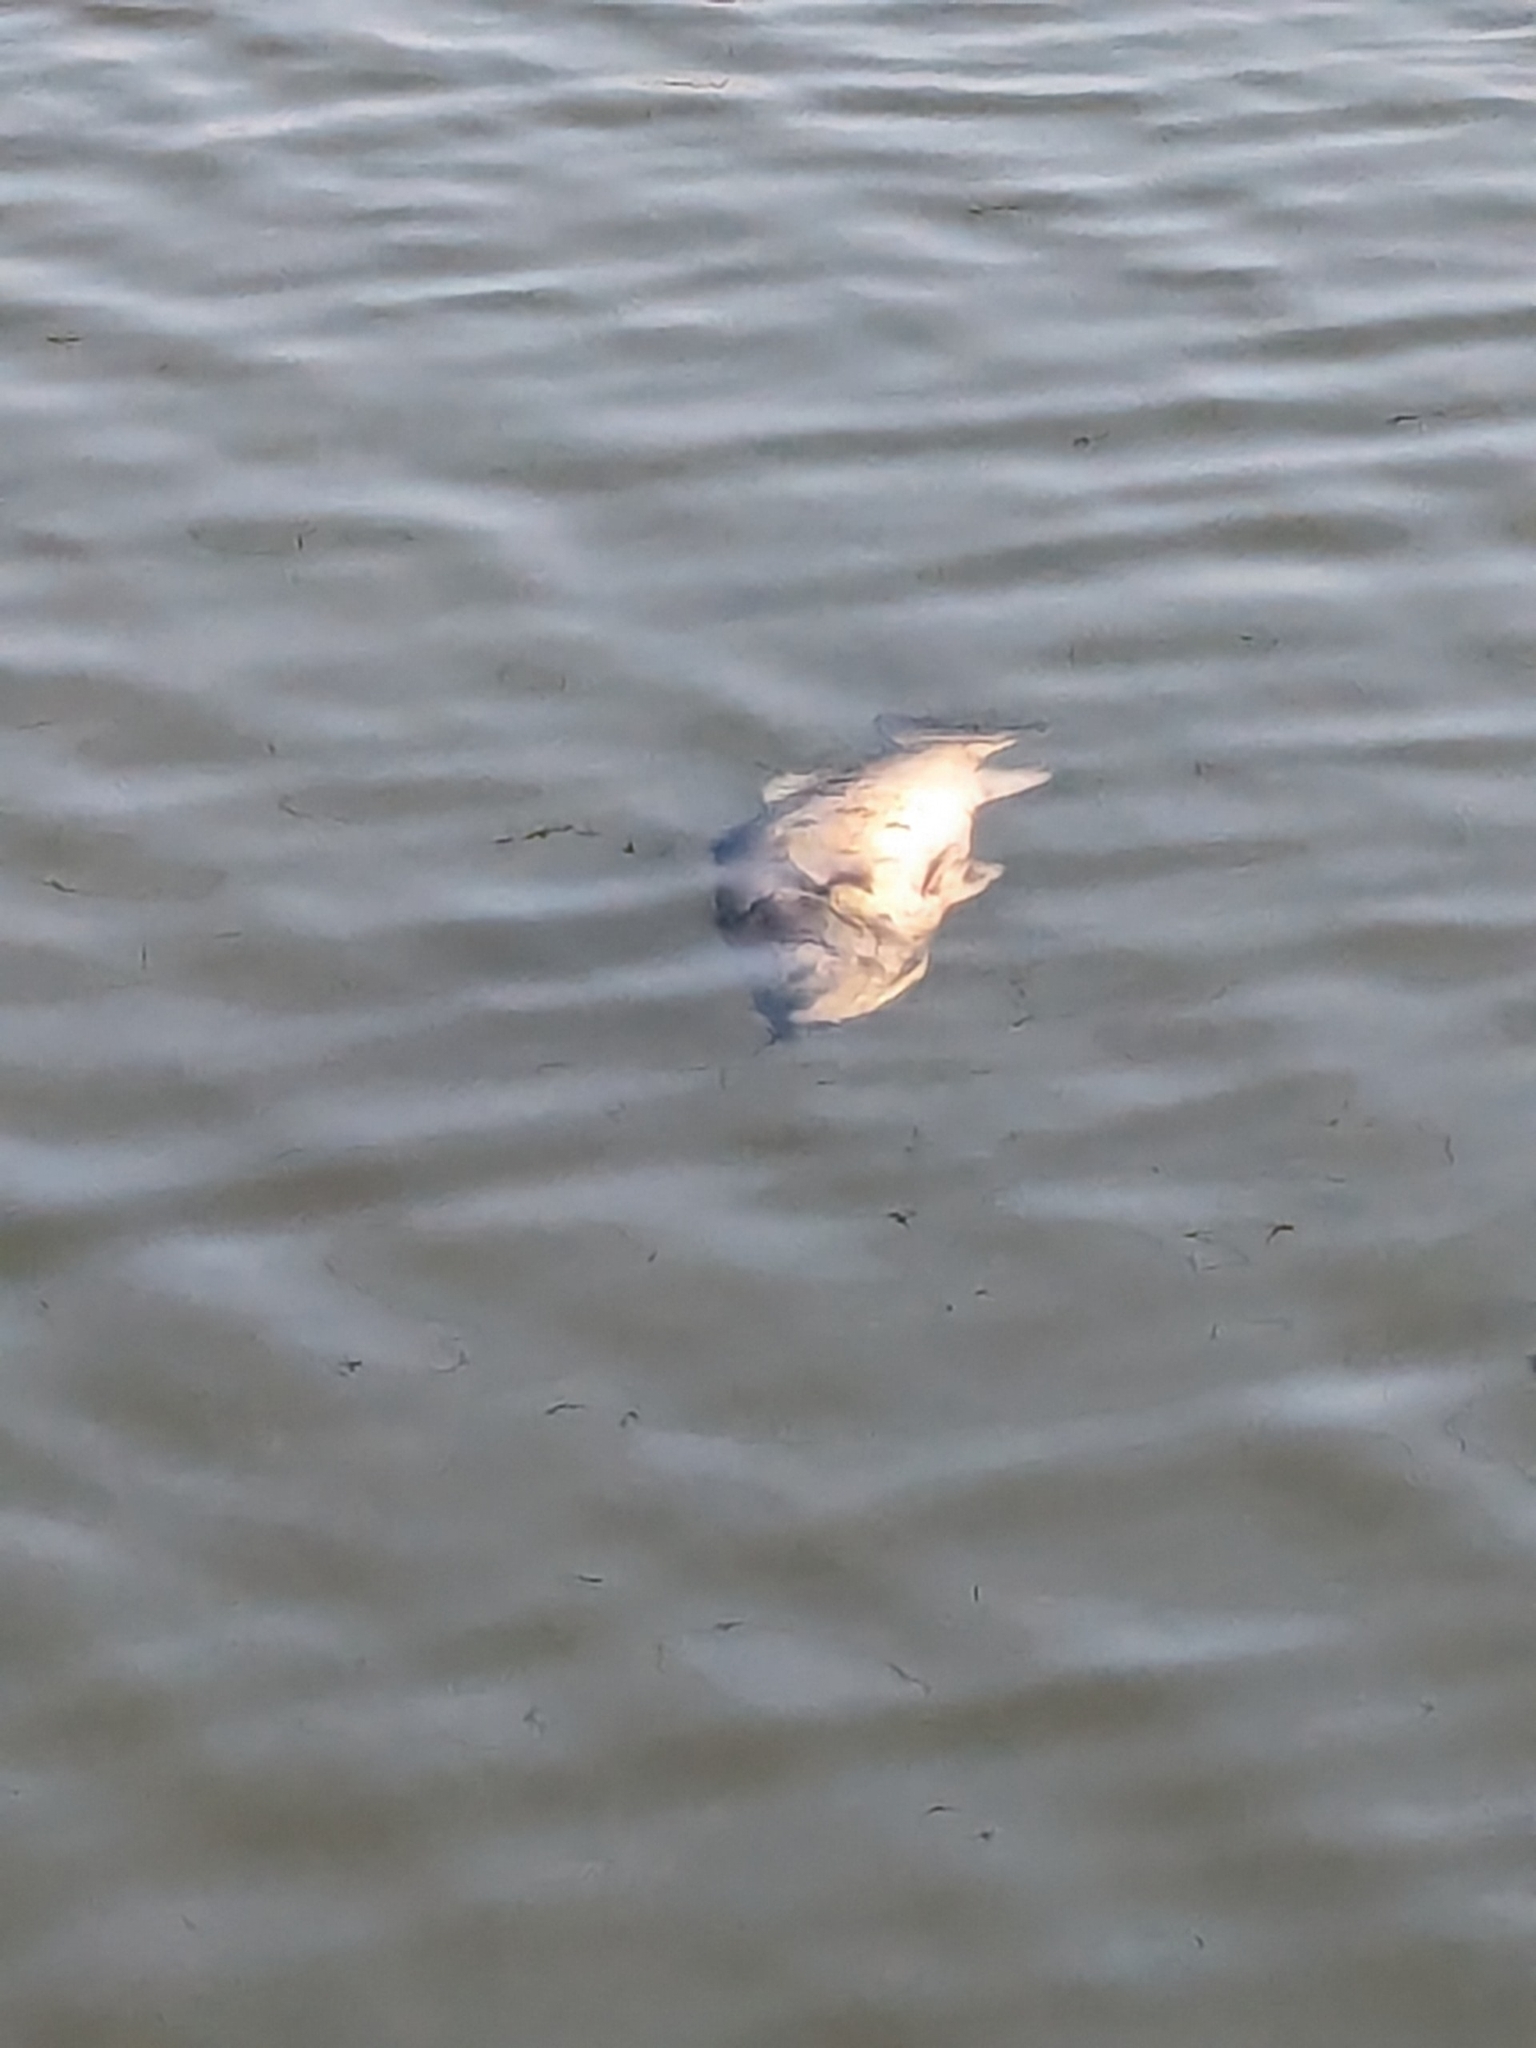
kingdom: Animalia
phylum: Chordata
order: Perciformes
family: Centrarchidae
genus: Micropterus
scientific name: Micropterus
